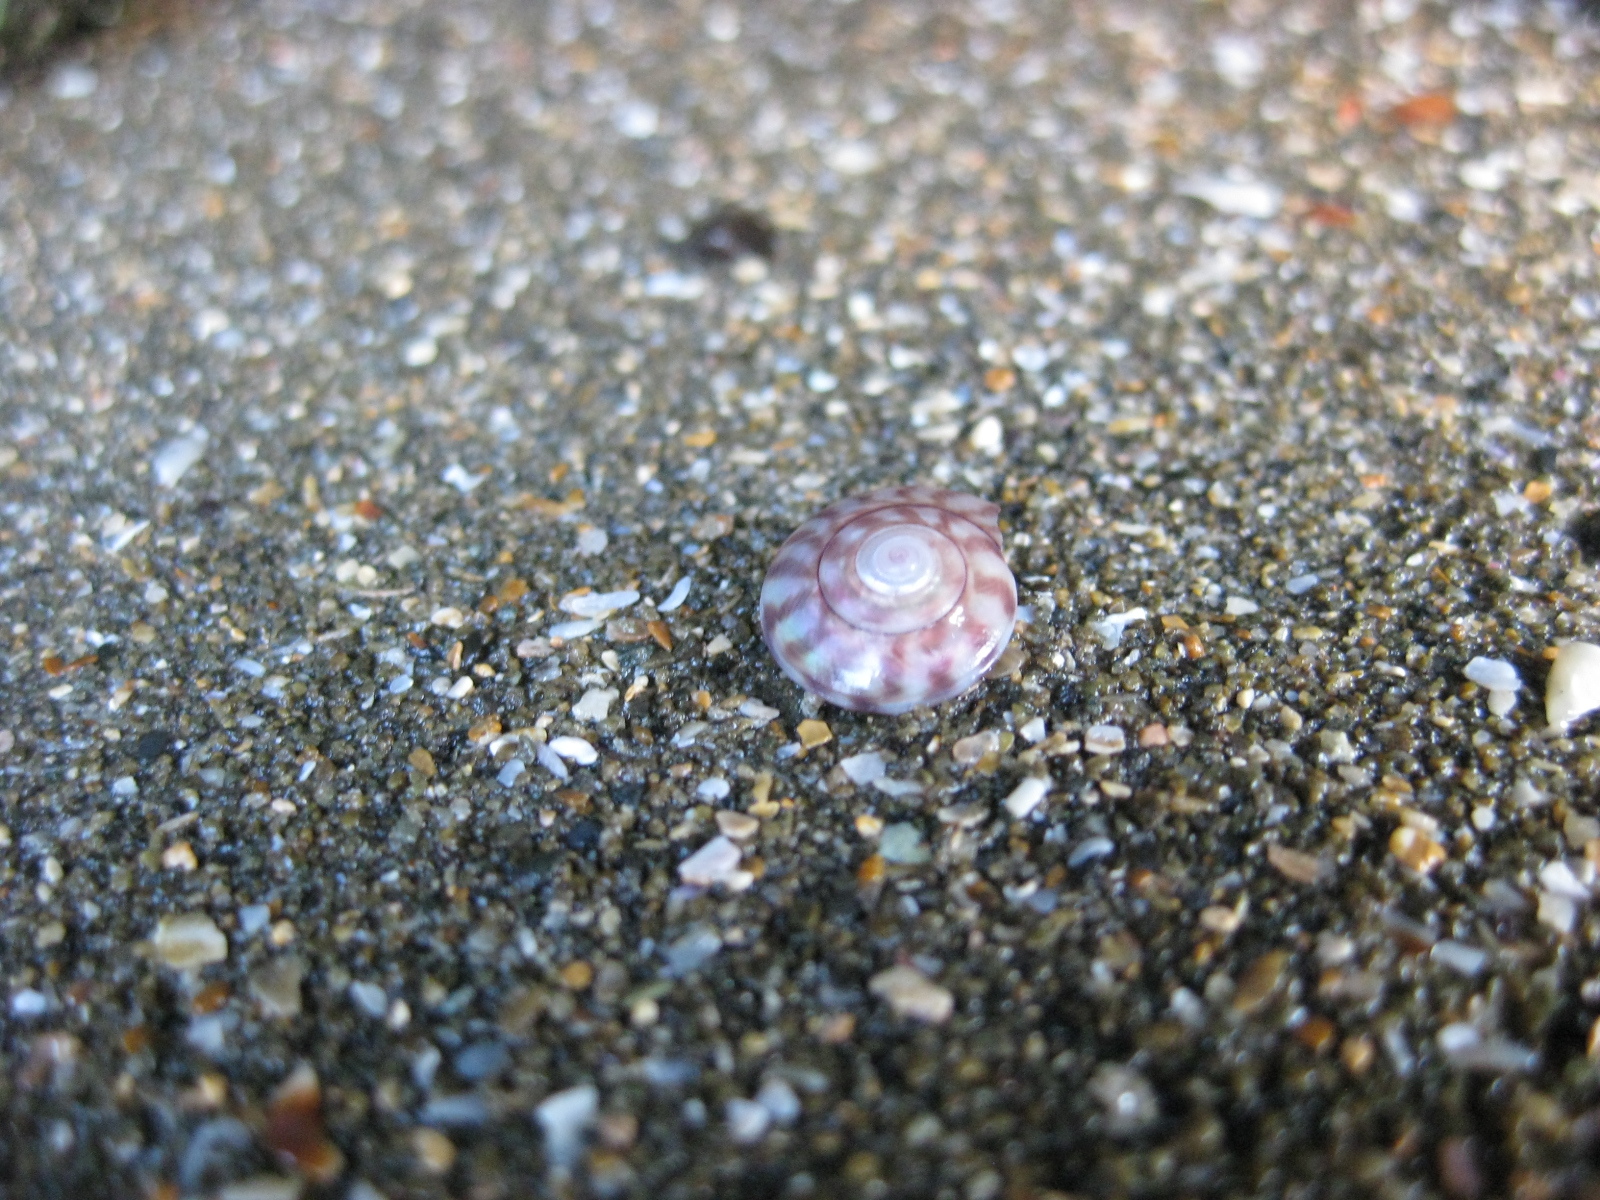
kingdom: Animalia
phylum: Mollusca
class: Gastropoda
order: Trochida
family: Trochidae
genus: Zethalia
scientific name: Zethalia zelandica
